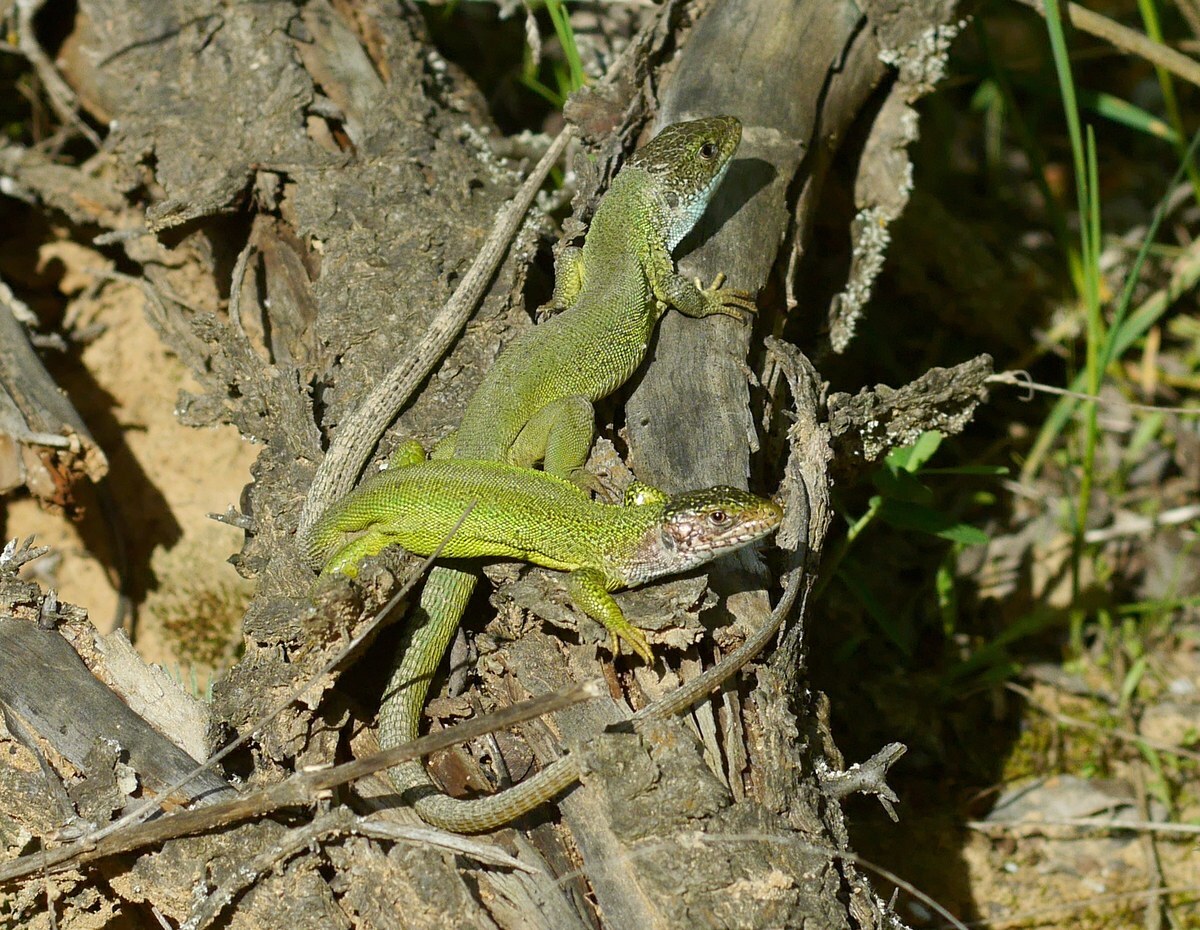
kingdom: Animalia
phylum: Chordata
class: Squamata
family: Lacertidae
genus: Lacerta
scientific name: Lacerta viridis
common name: European green lizard
